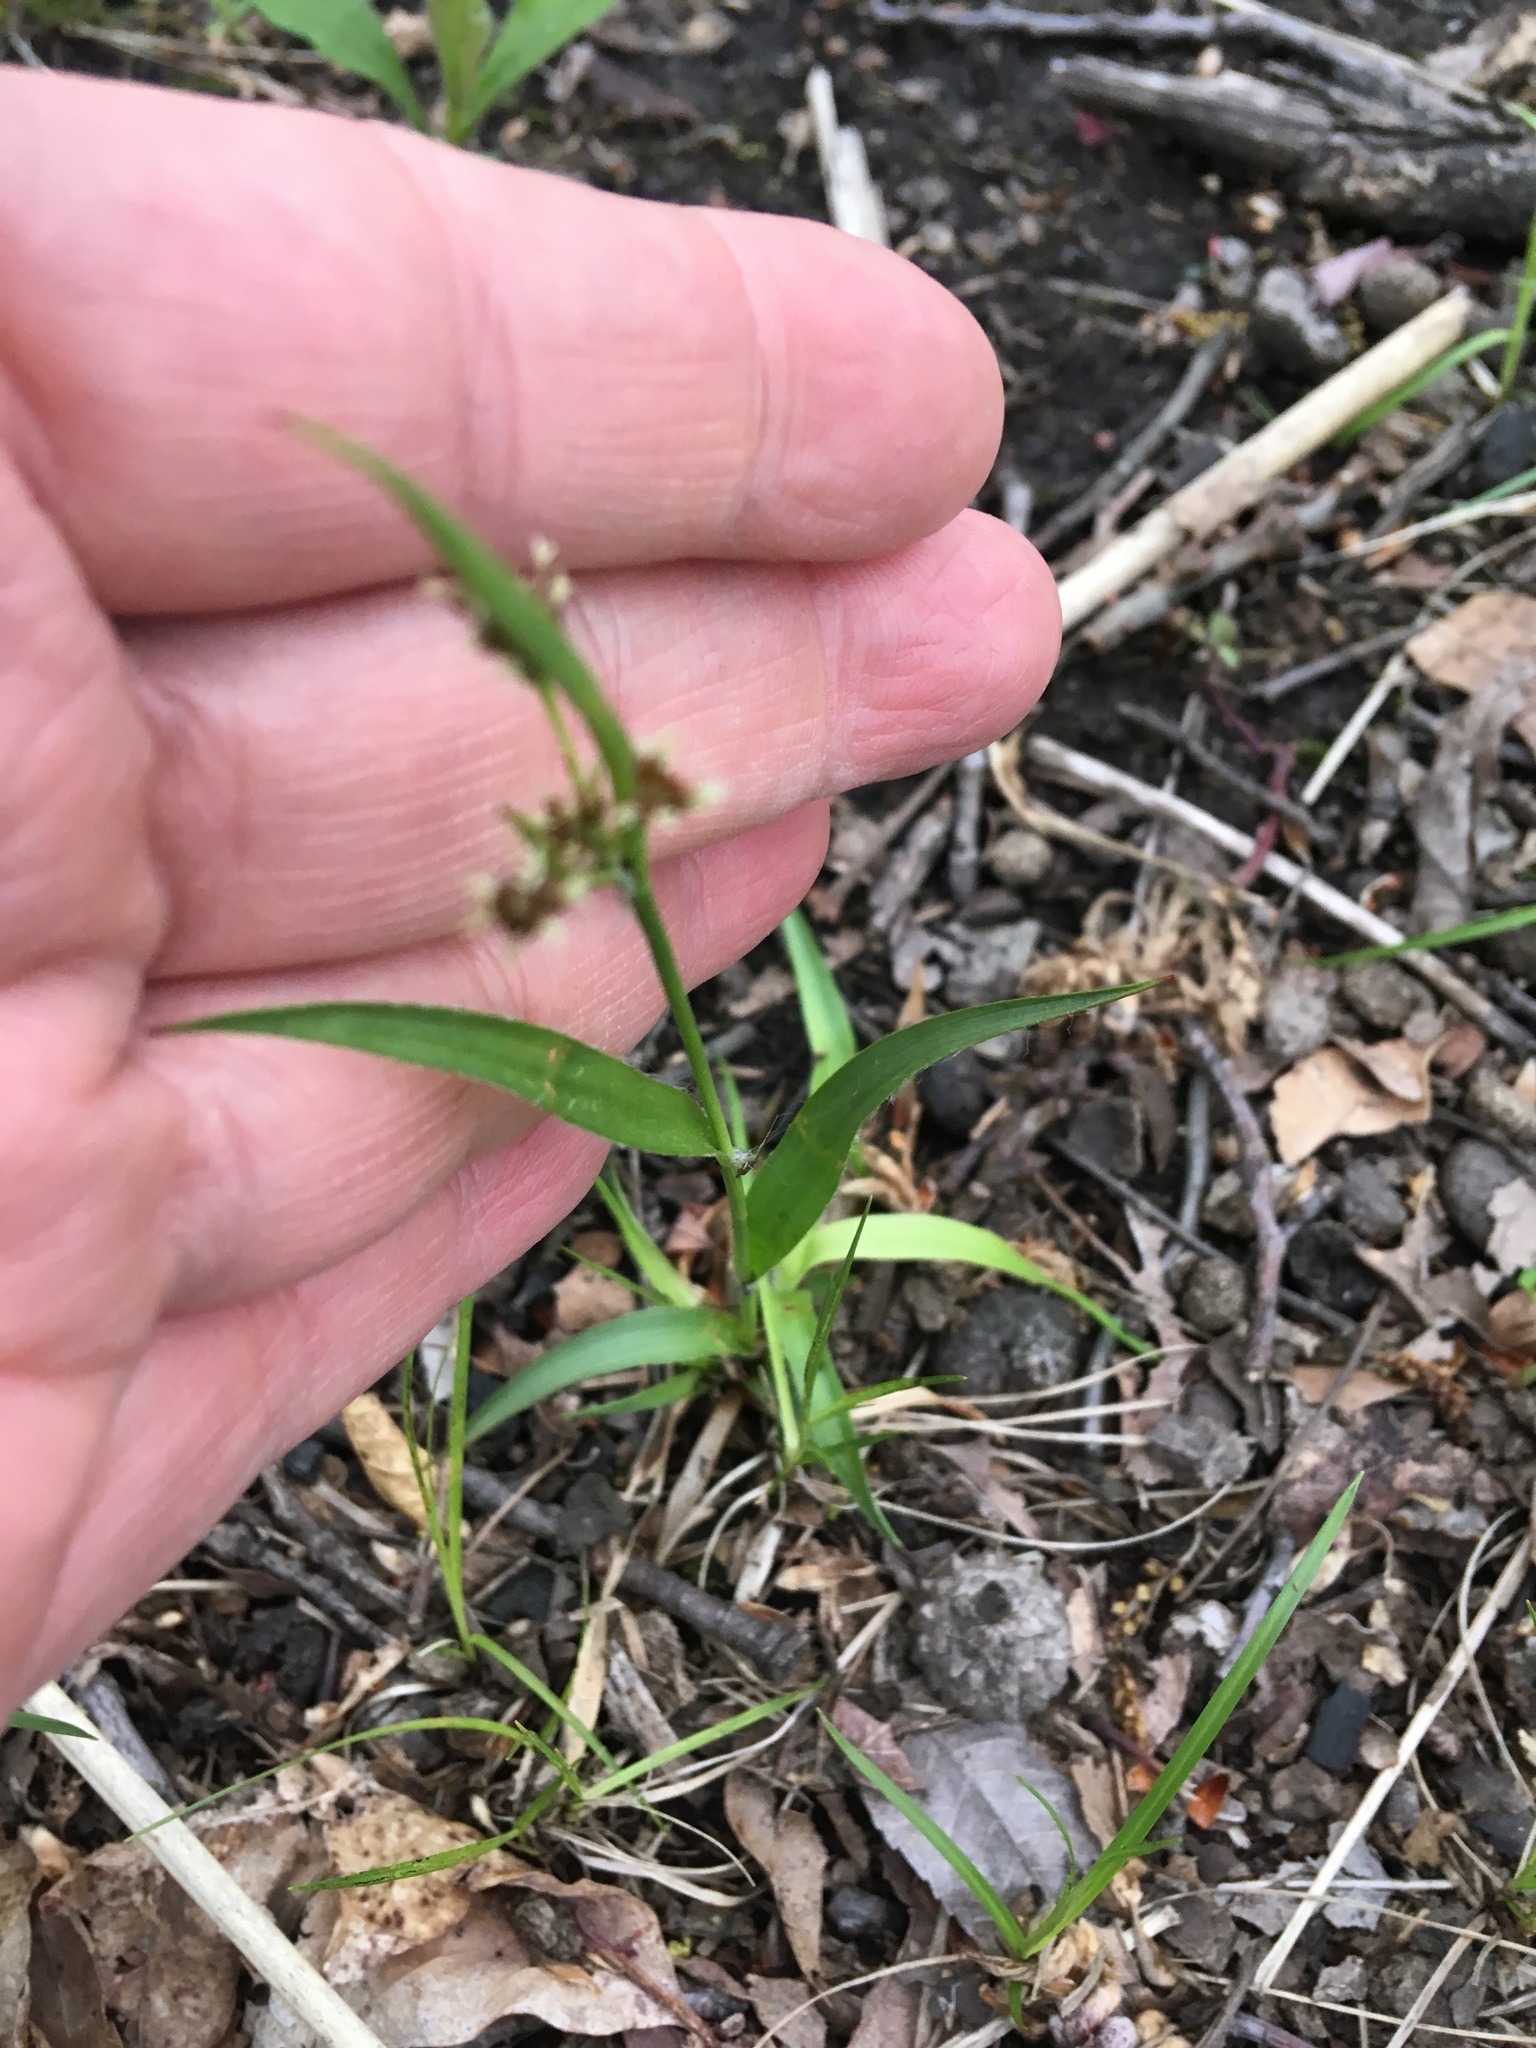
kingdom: Plantae
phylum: Tracheophyta
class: Liliopsida
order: Poales
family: Juncaceae
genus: Luzula
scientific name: Luzula multiflora
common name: Heath wood-rush
